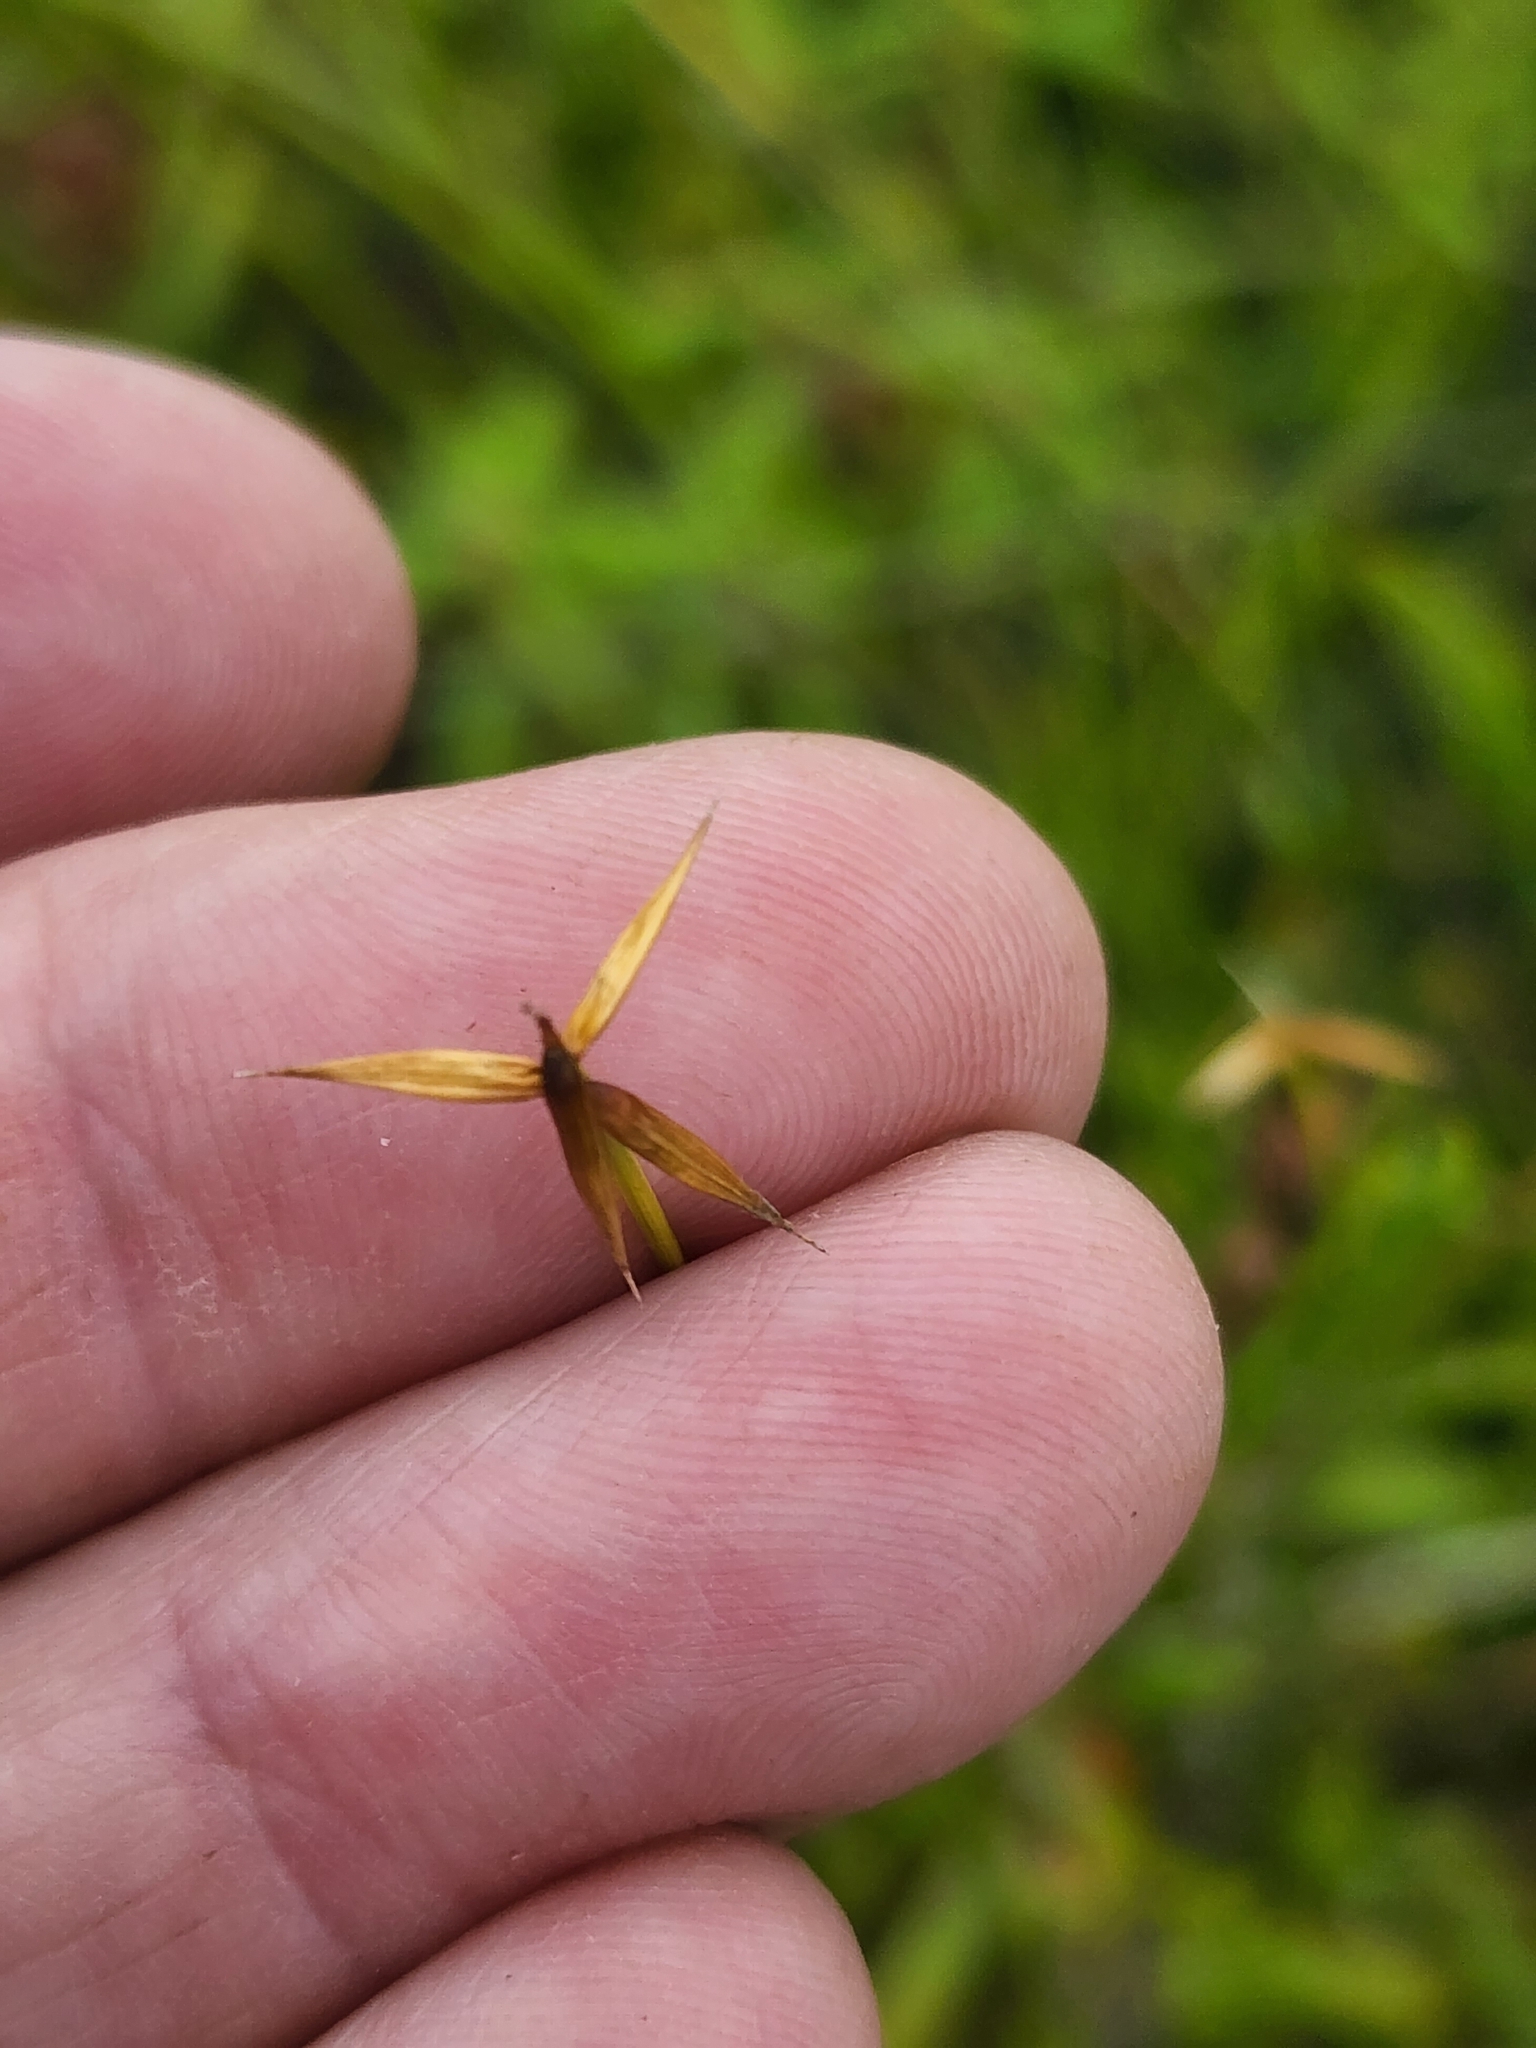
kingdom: Plantae
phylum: Tracheophyta
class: Liliopsida
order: Poales
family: Cyperaceae
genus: Carex
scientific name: Carex pauciflora
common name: Few-flowered sedge
